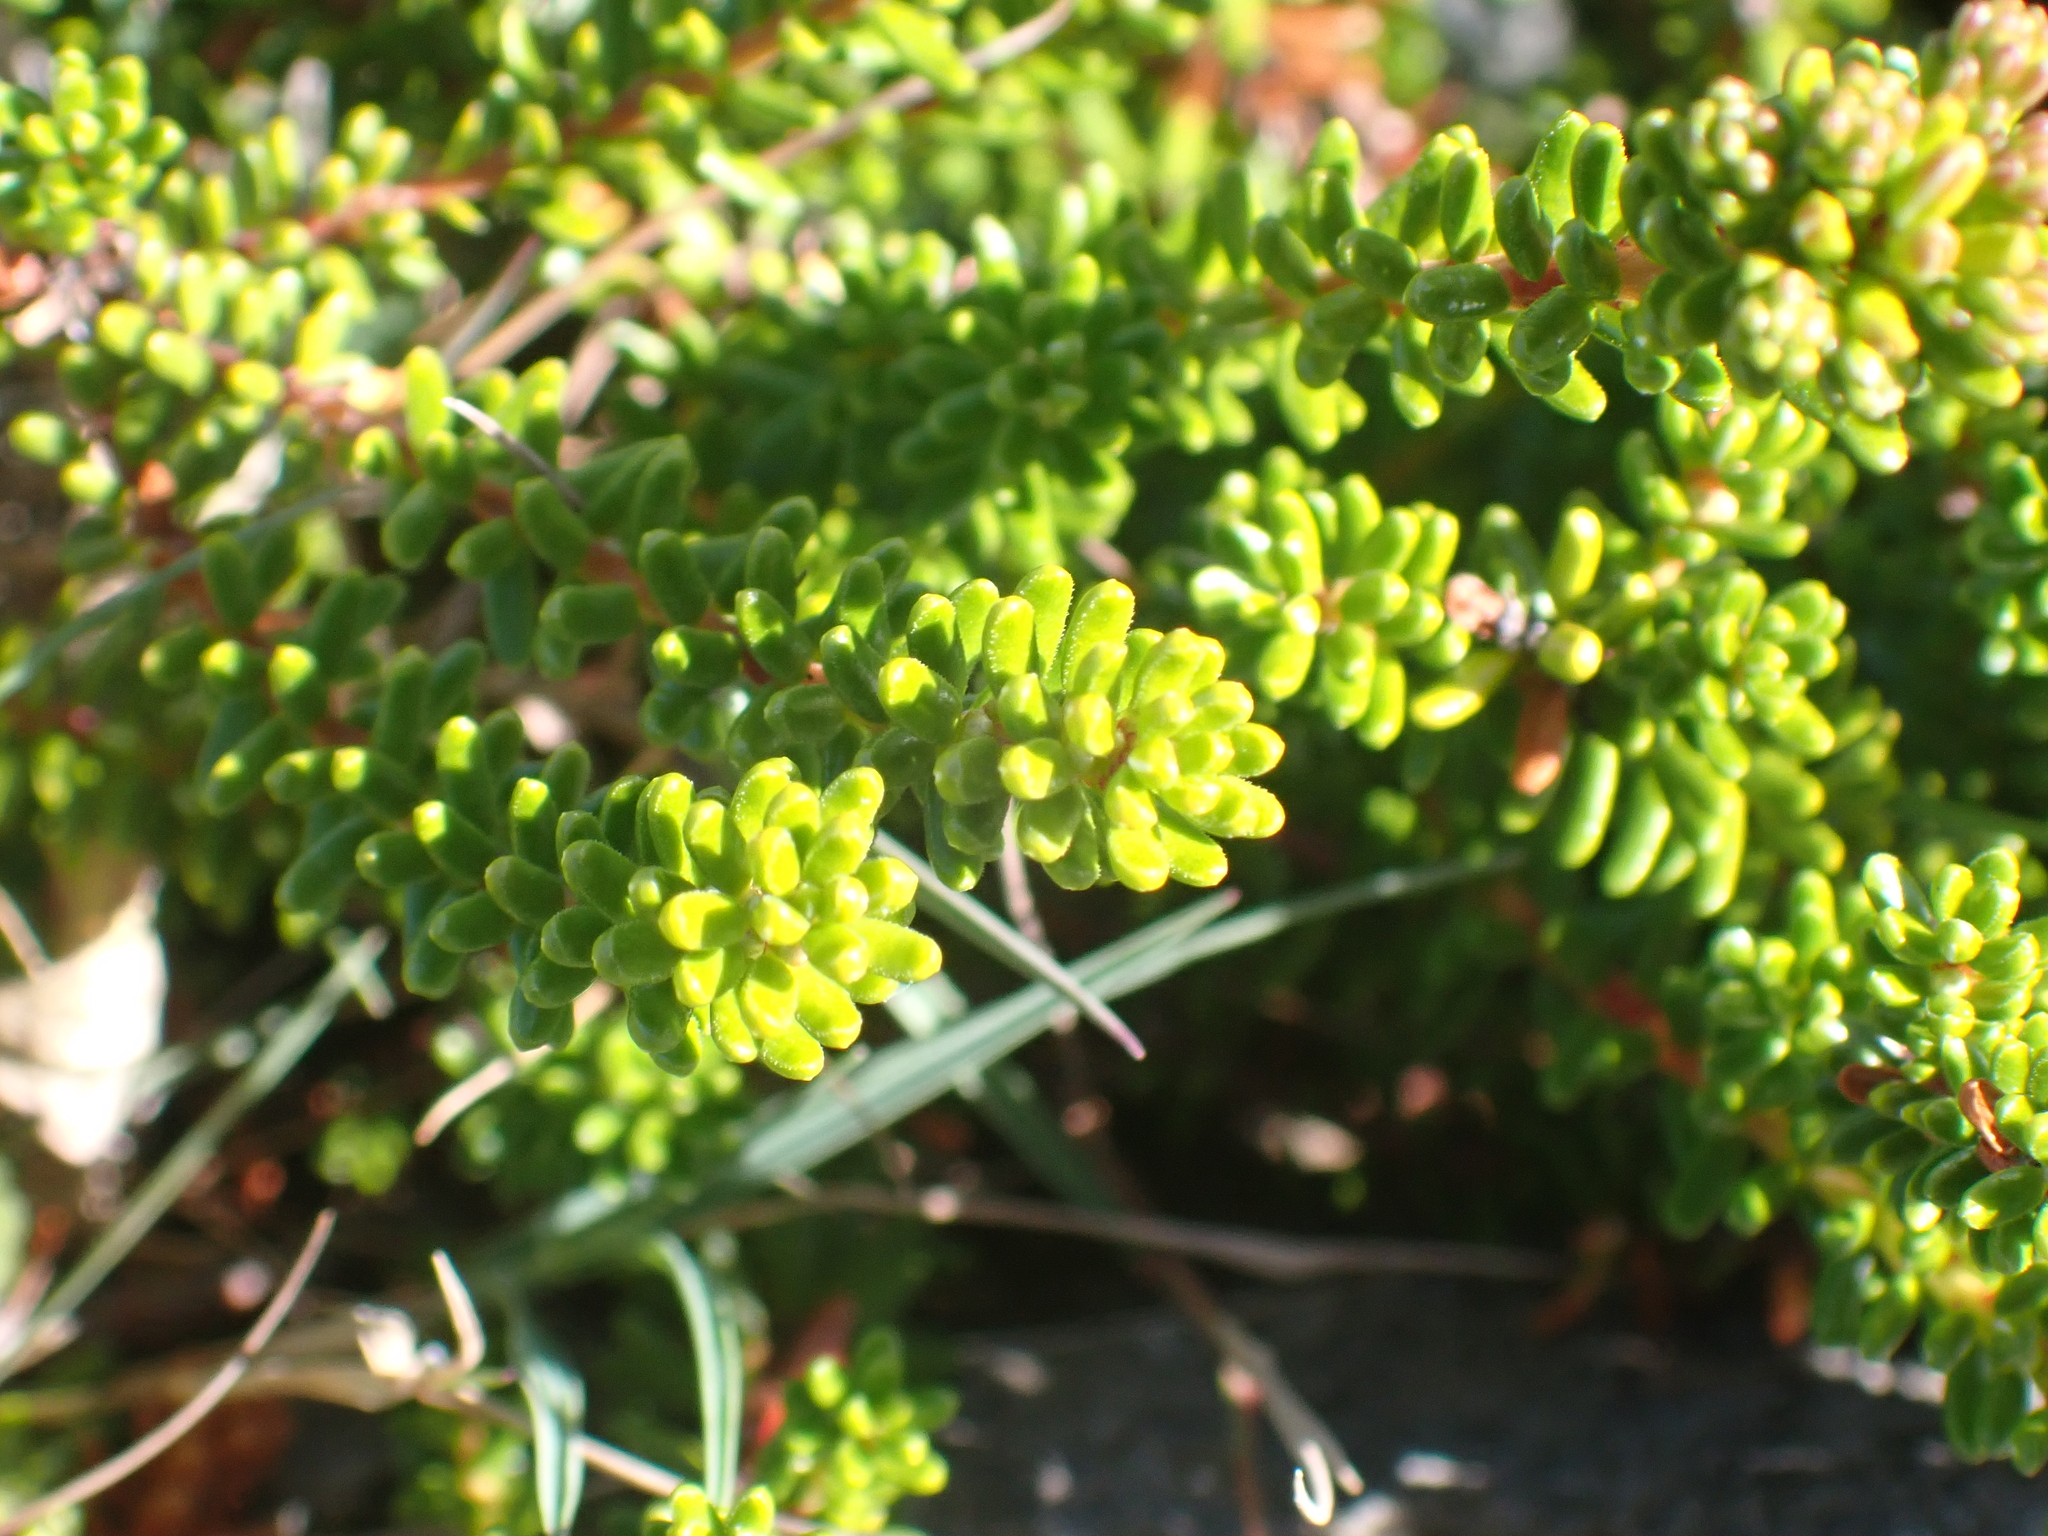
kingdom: Plantae
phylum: Tracheophyta
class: Magnoliopsida
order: Ericales
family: Ericaceae
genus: Empetrum
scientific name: Empetrum nigrum
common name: Black crowberry
